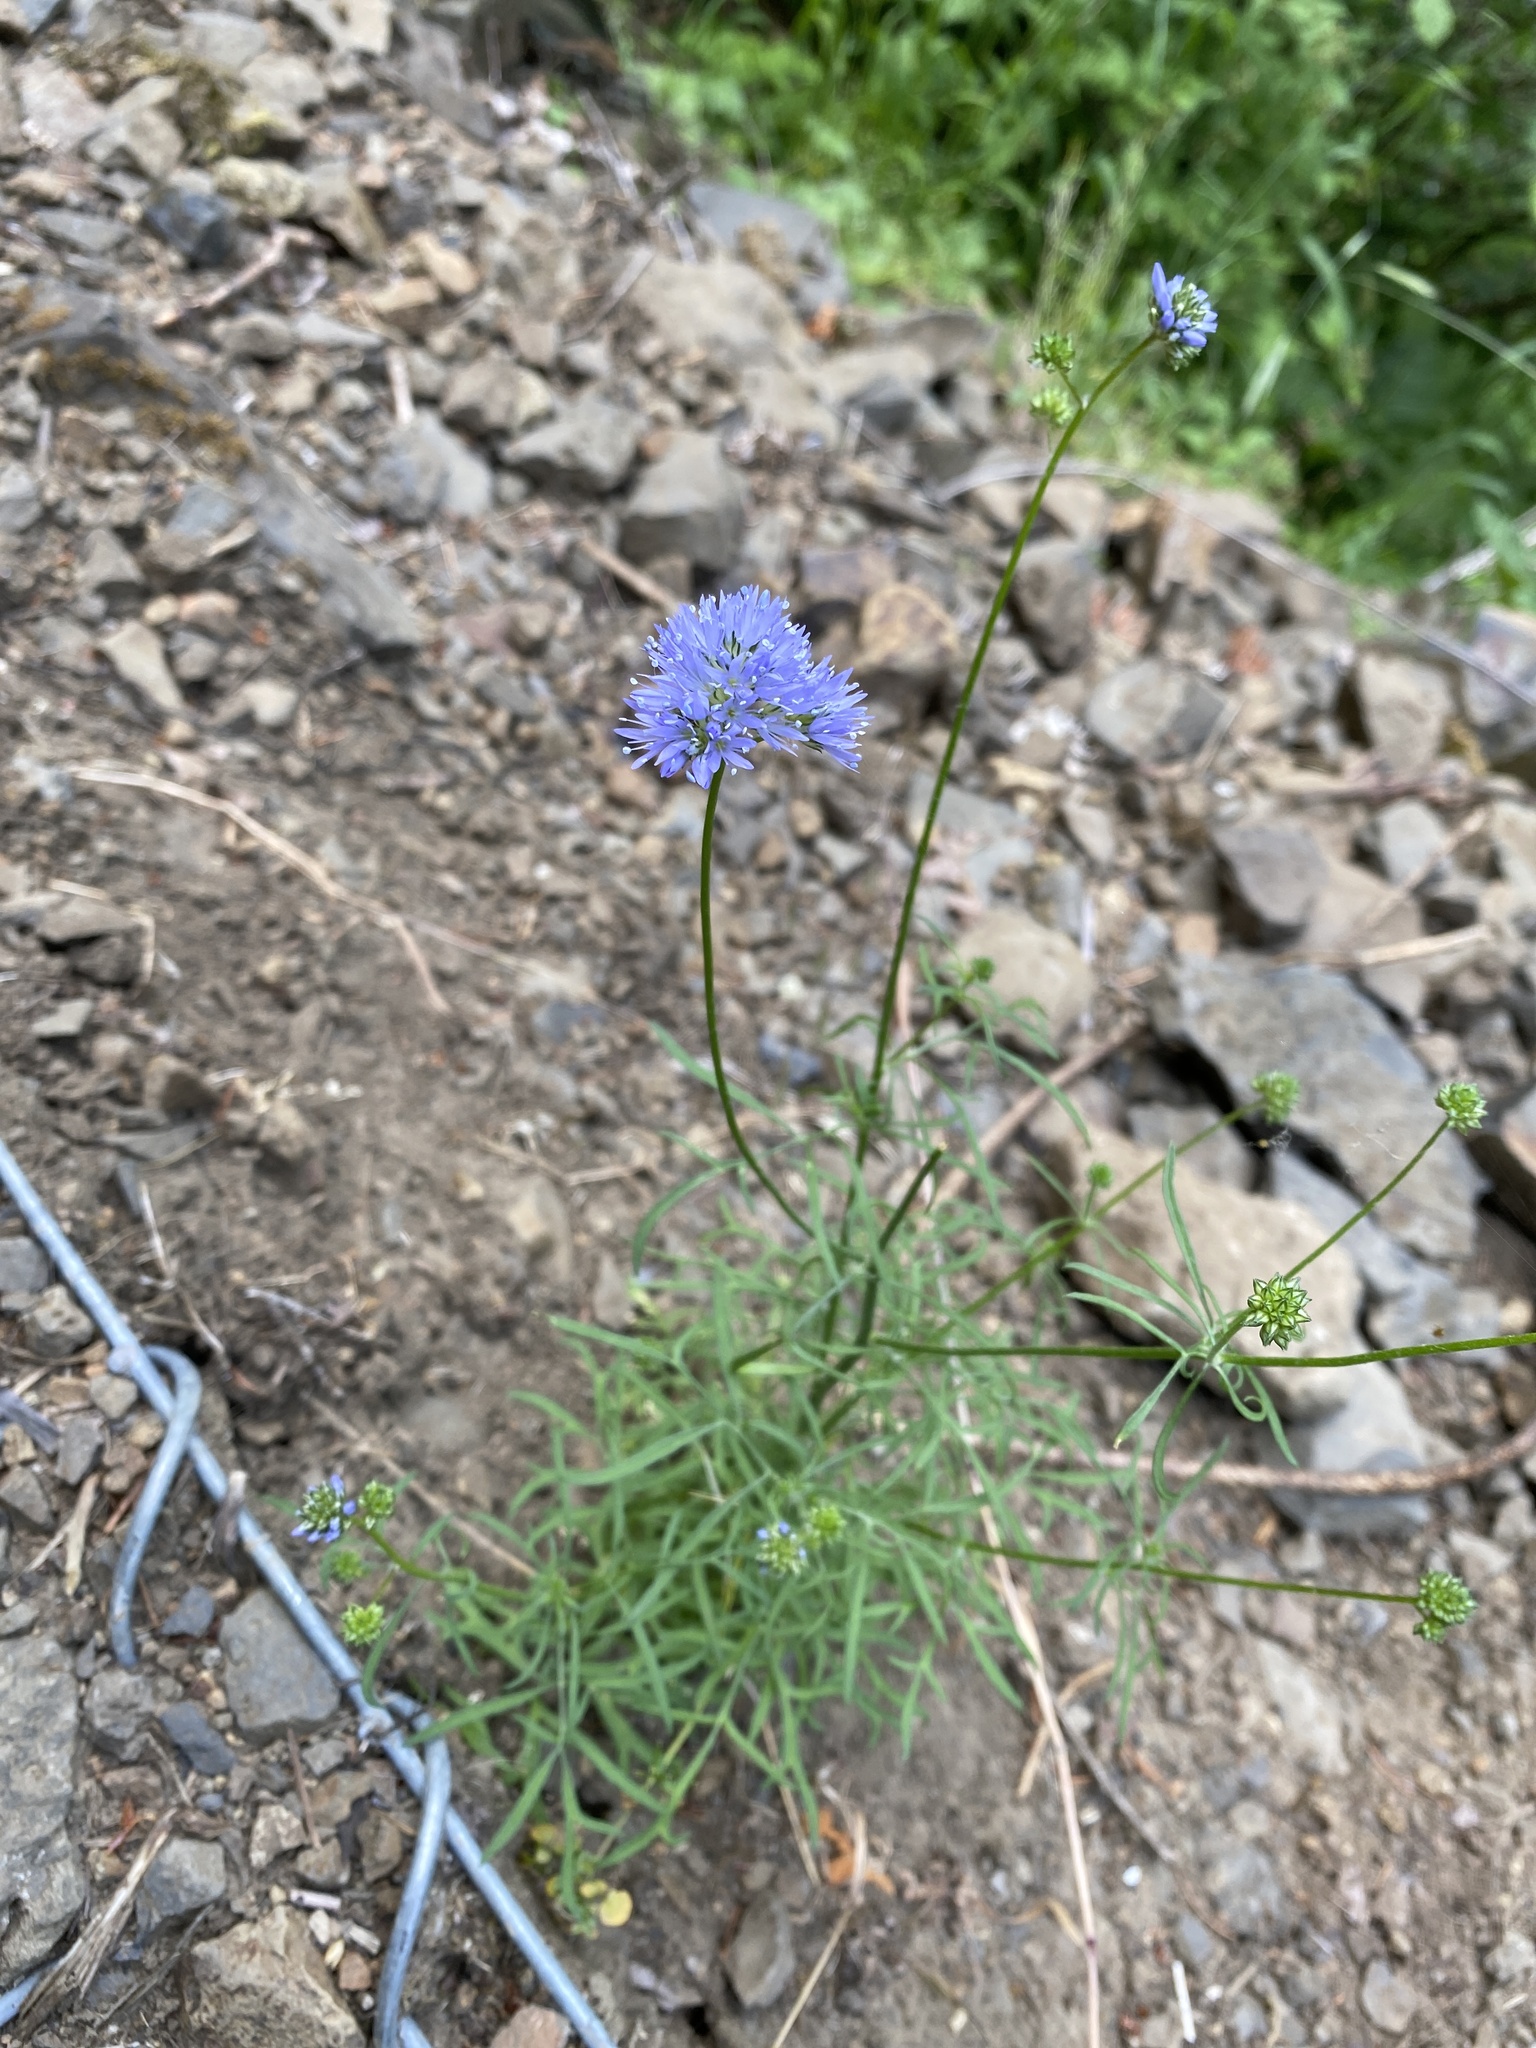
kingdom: Plantae
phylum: Tracheophyta
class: Magnoliopsida
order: Ericales
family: Polemoniaceae
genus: Gilia
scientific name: Gilia capitata
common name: Bluehead gilia
